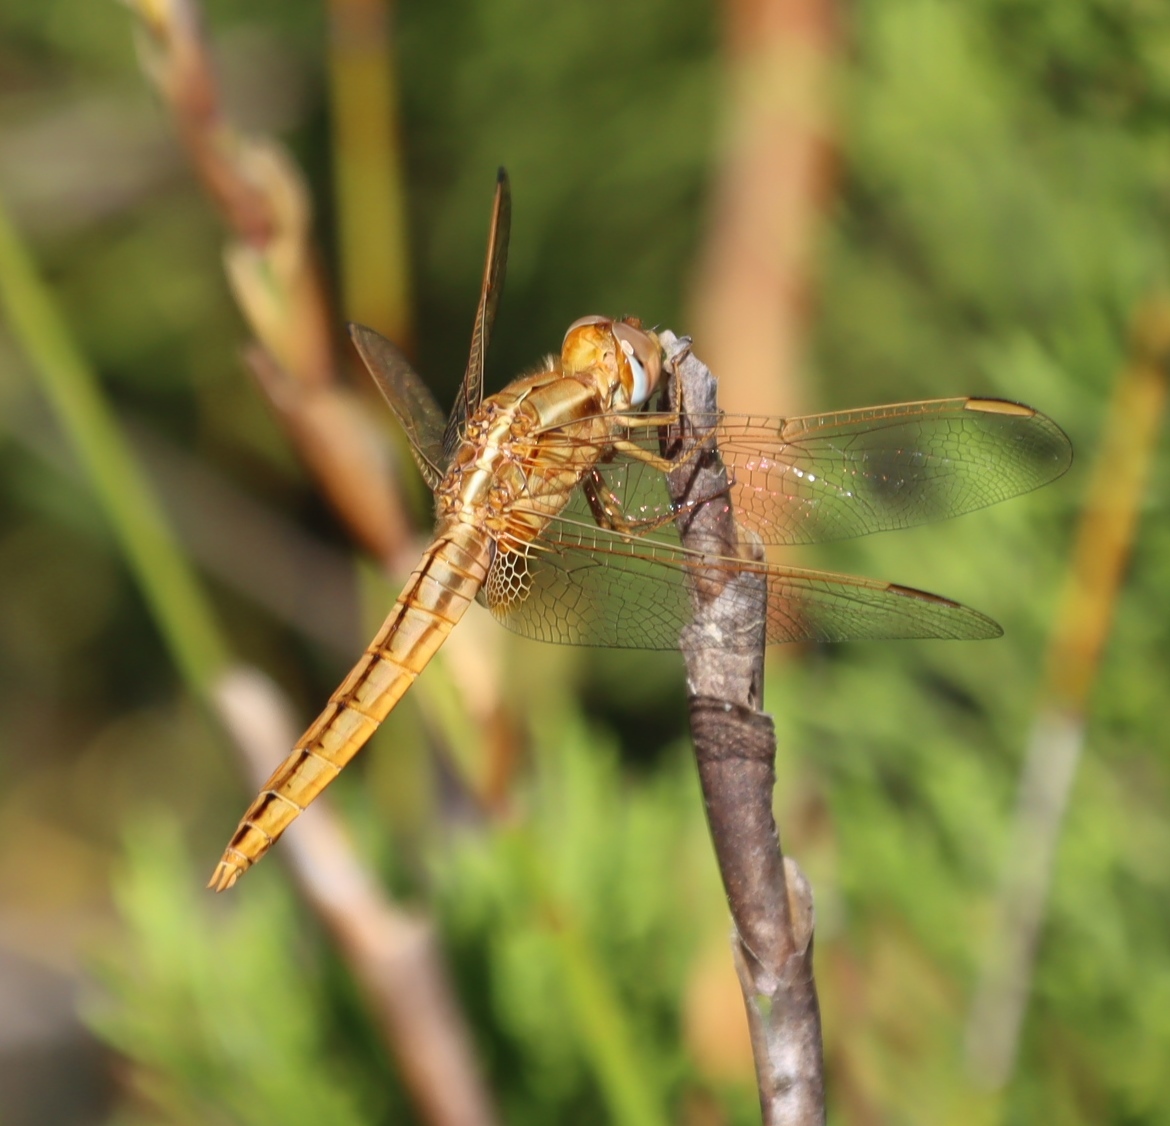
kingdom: Animalia
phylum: Arthropoda
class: Insecta
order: Odonata
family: Libellulidae
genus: Crocothemis
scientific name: Crocothemis erythraea
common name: Scarlet dragonfly
